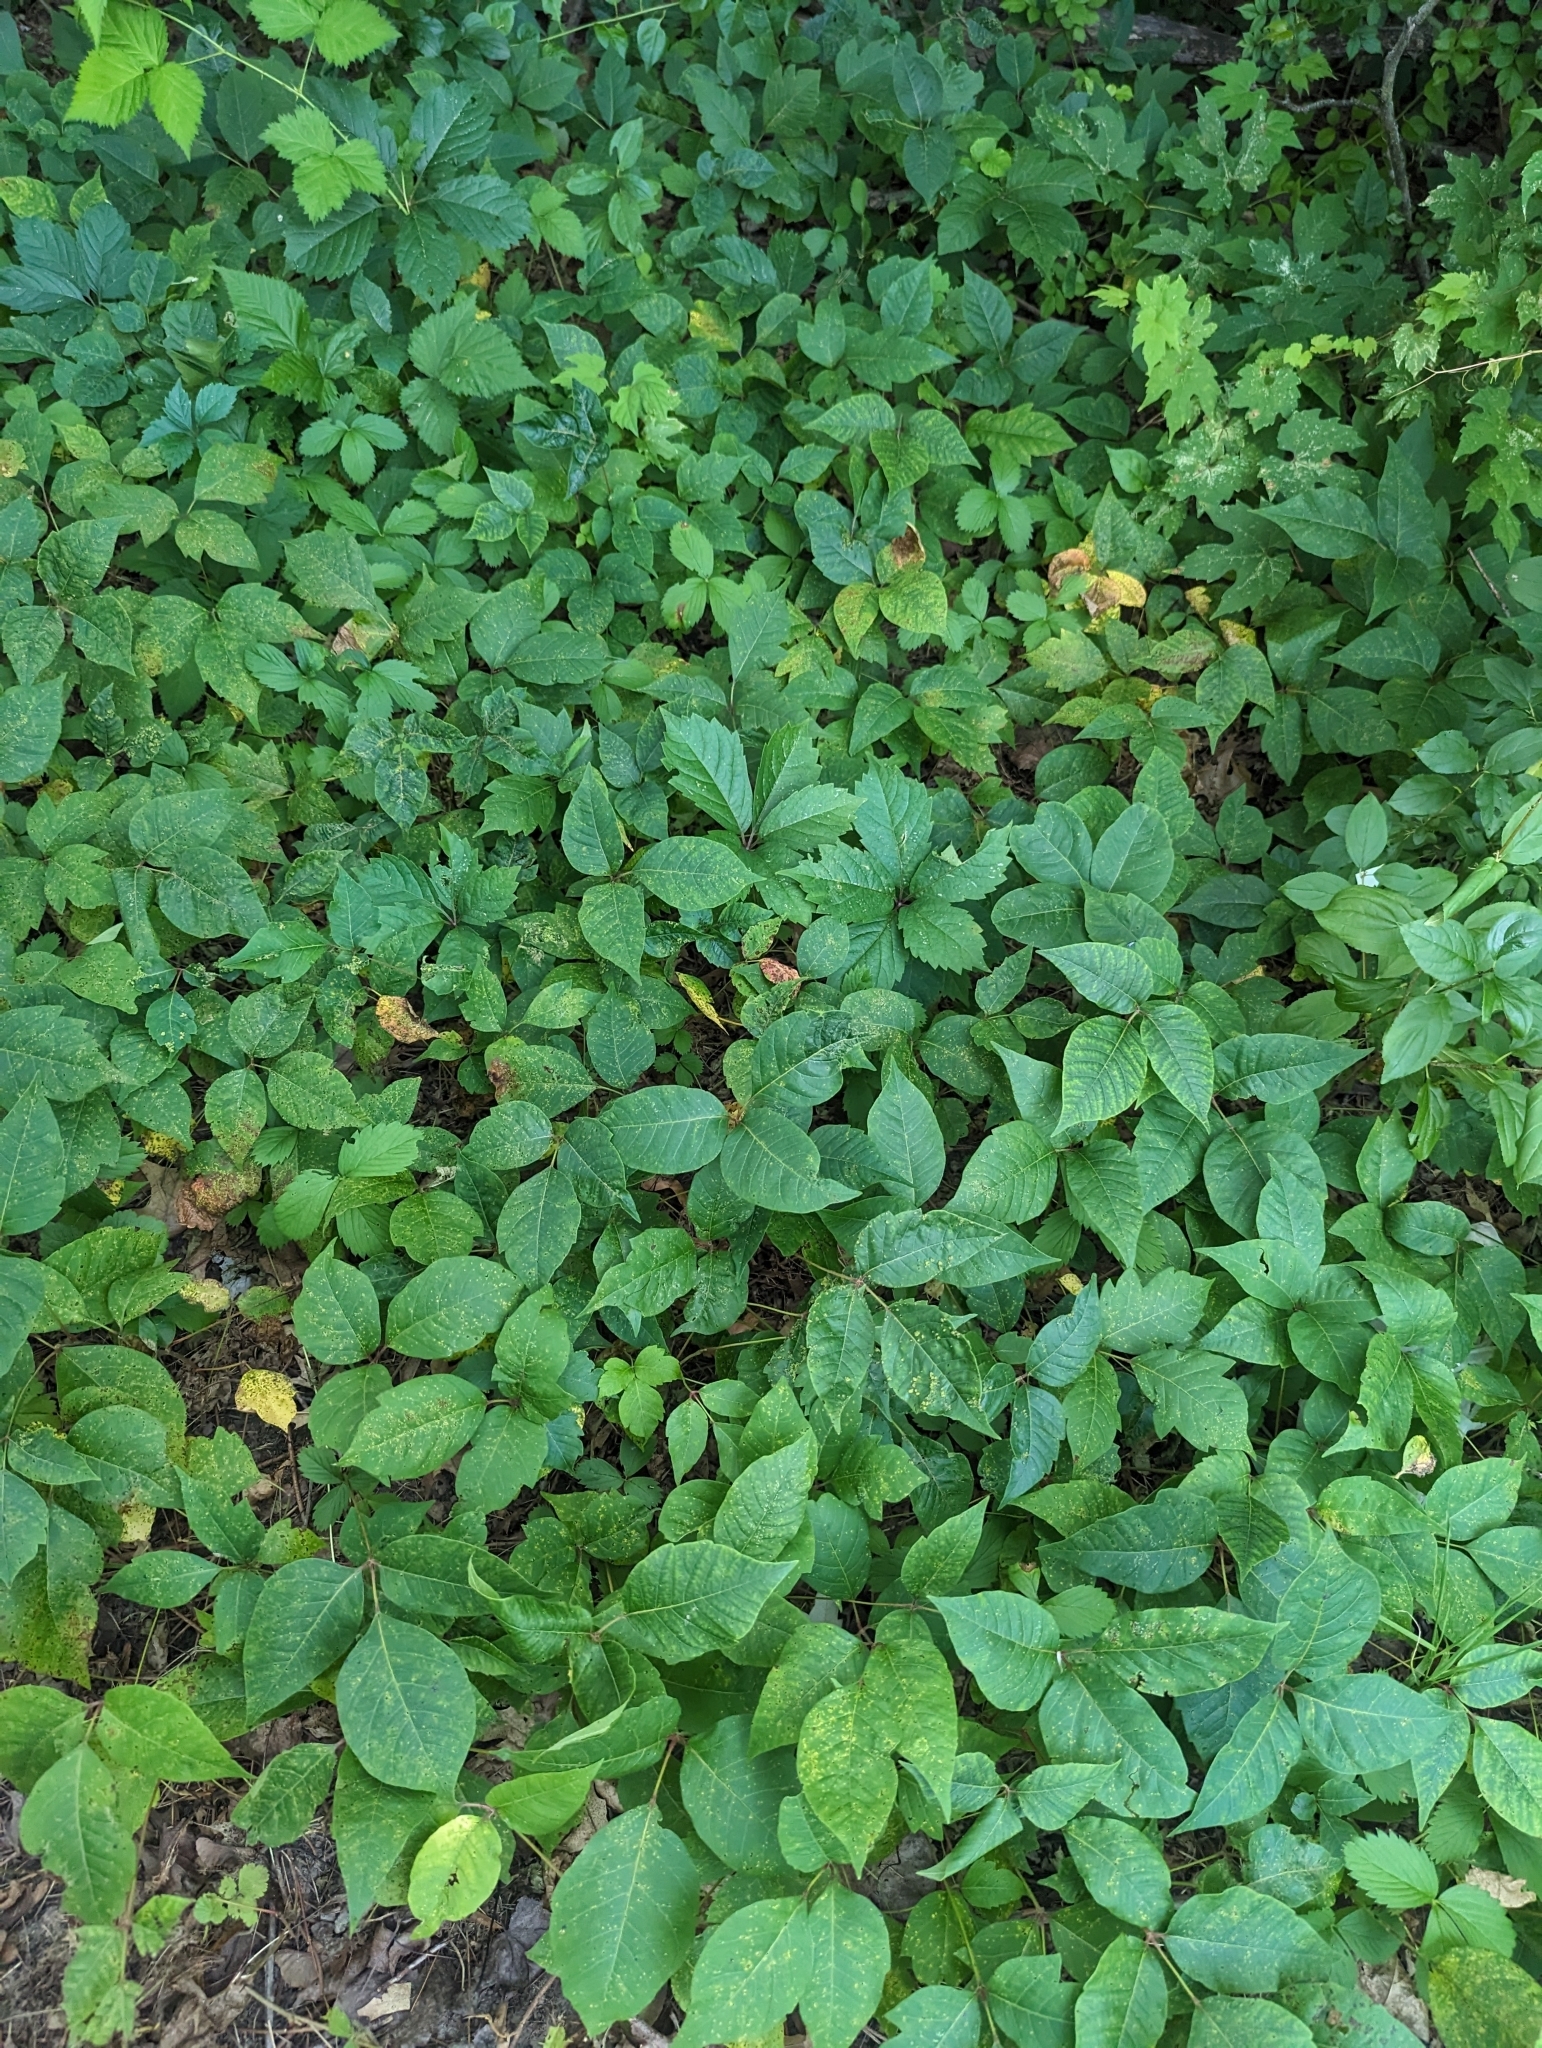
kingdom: Plantae
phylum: Tracheophyta
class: Magnoliopsida
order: Sapindales
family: Anacardiaceae
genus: Toxicodendron
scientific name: Toxicodendron radicans
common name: Poison ivy
